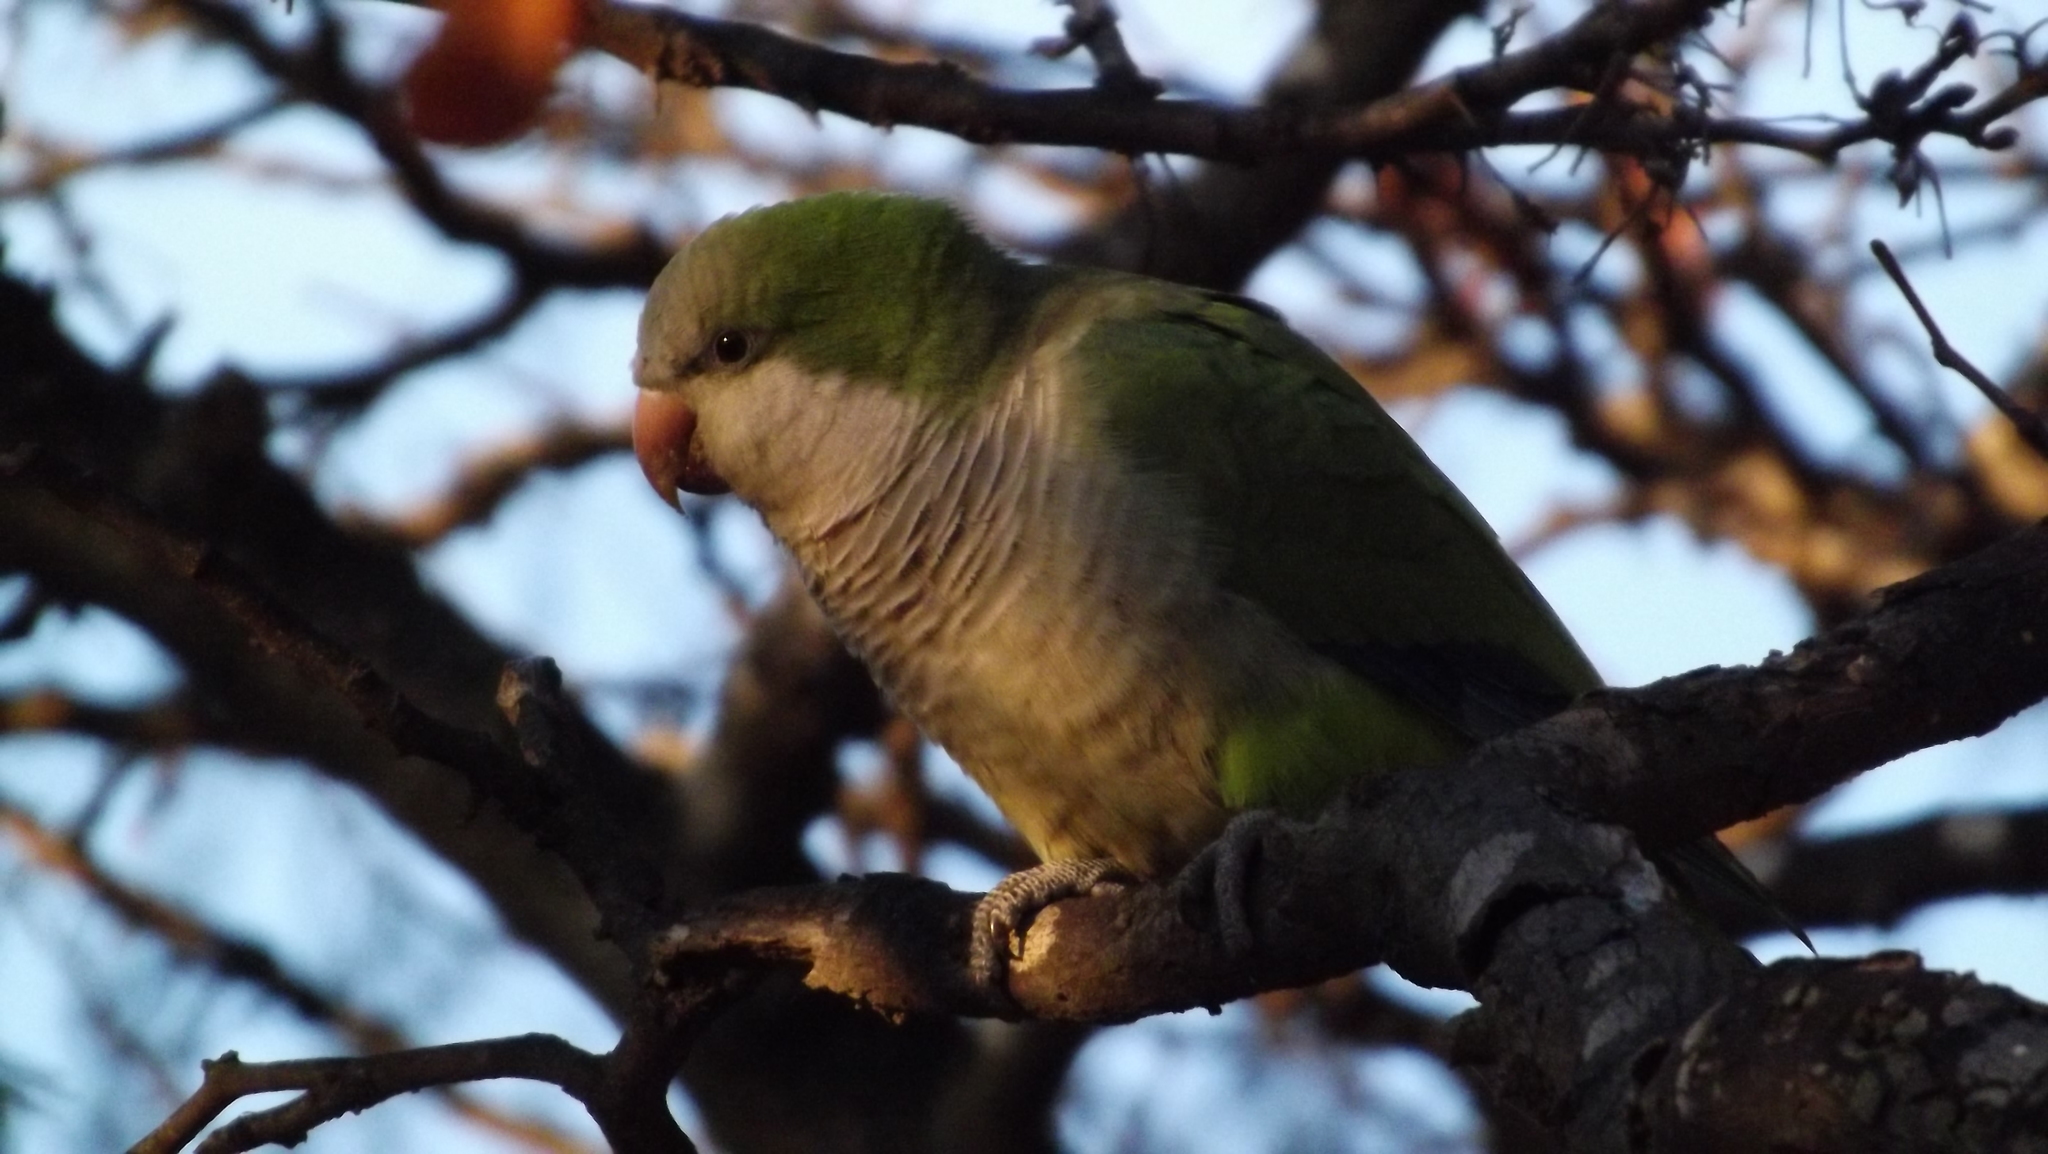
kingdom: Animalia
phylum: Chordata
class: Aves
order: Psittaciformes
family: Psittacidae
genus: Myiopsitta
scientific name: Myiopsitta monachus
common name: Monk parakeet
